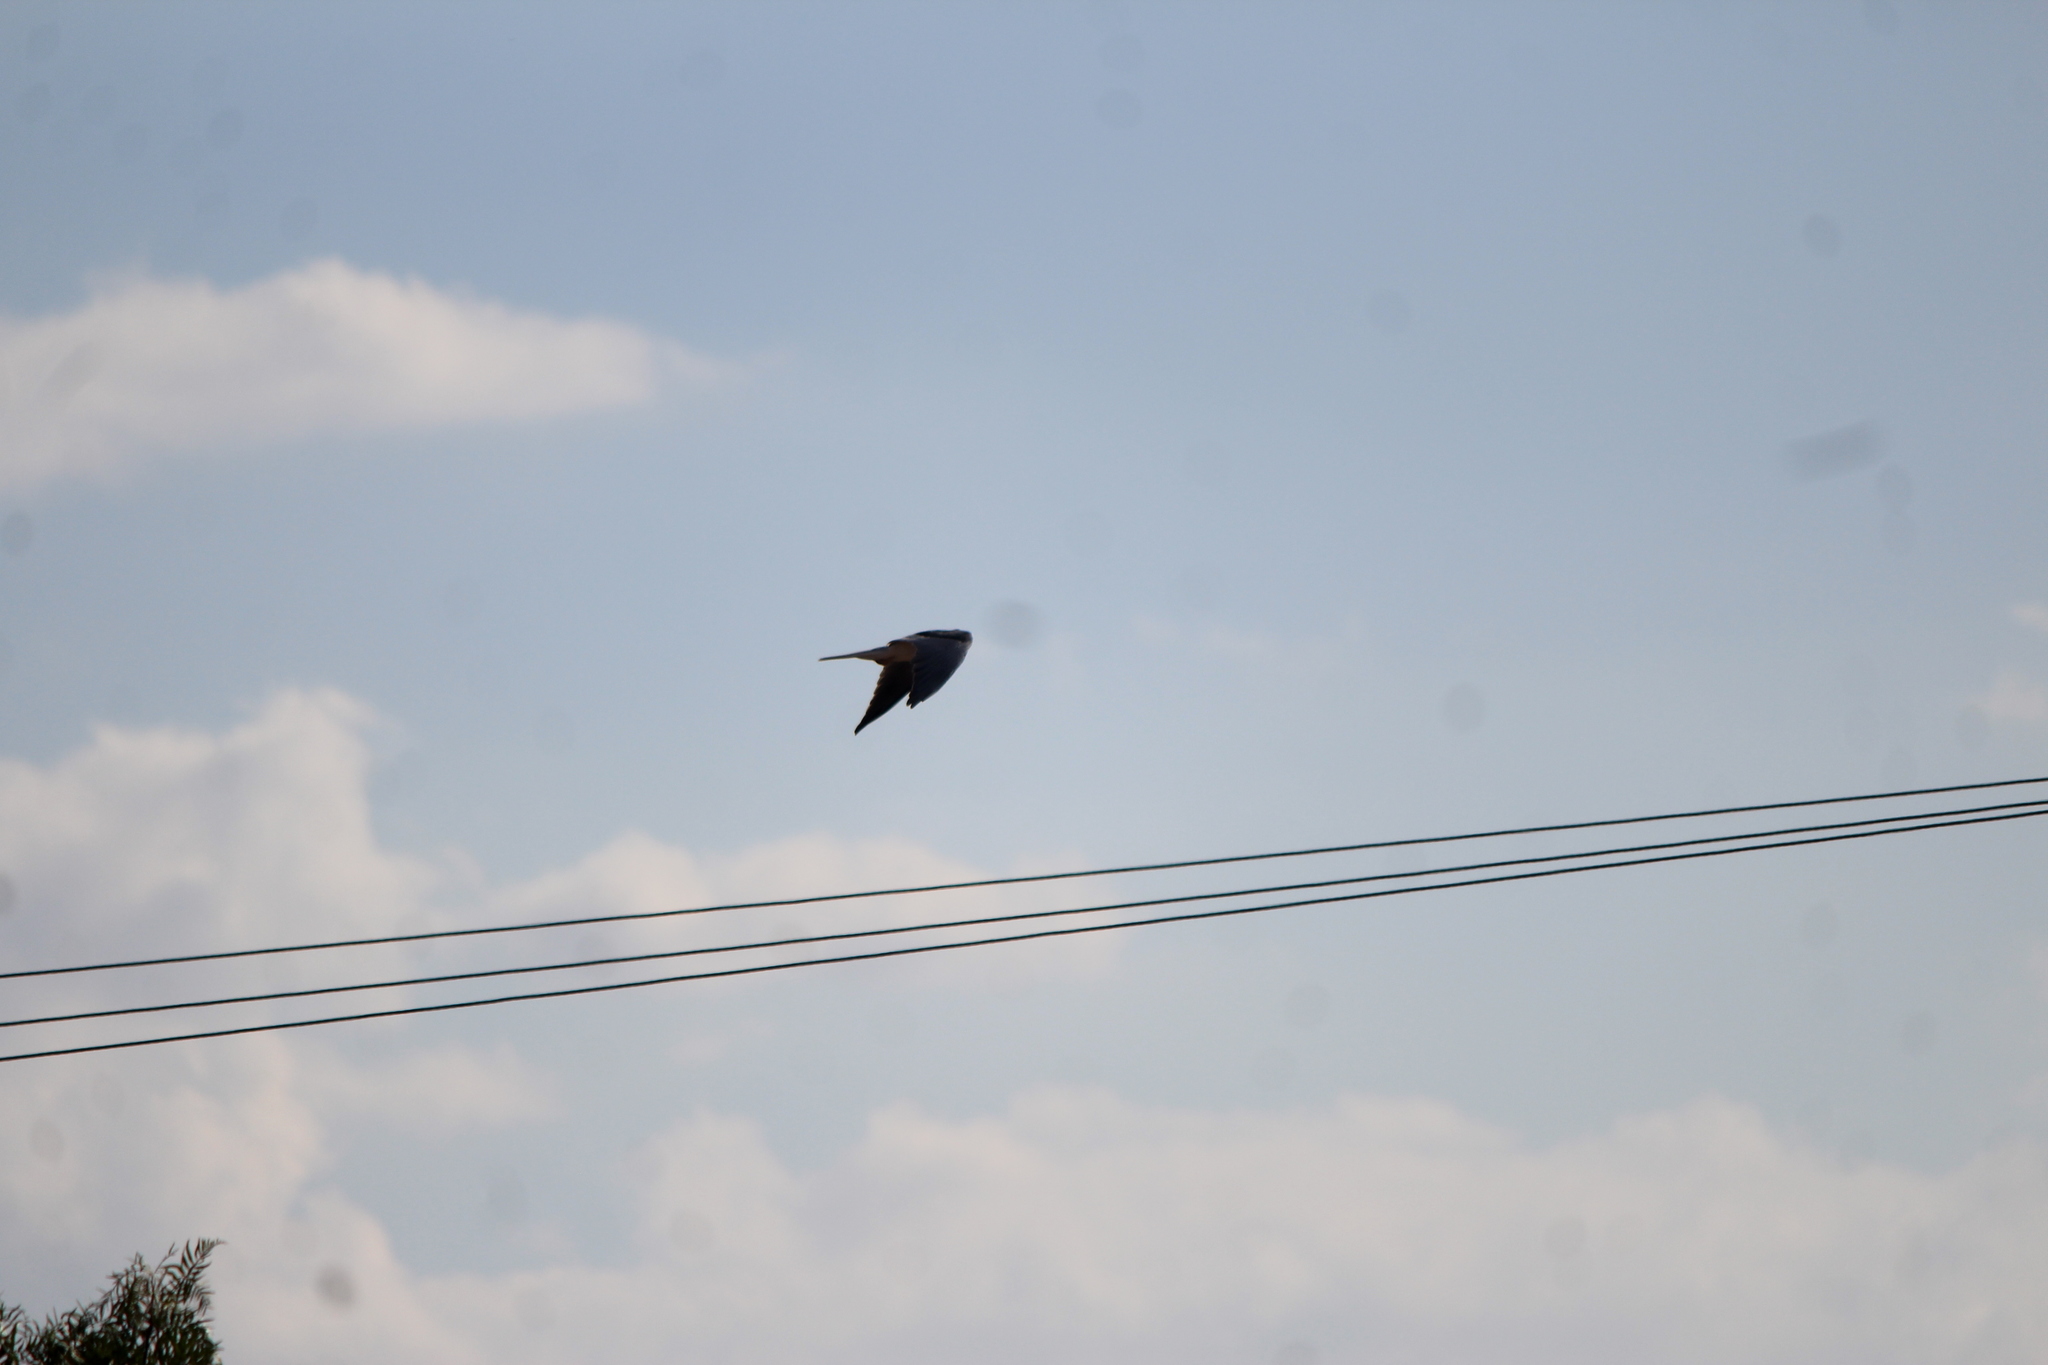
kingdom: Animalia
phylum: Chordata
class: Aves
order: Accipitriformes
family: Accipitridae
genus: Elanus
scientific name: Elanus leucurus
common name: White-tailed kite
